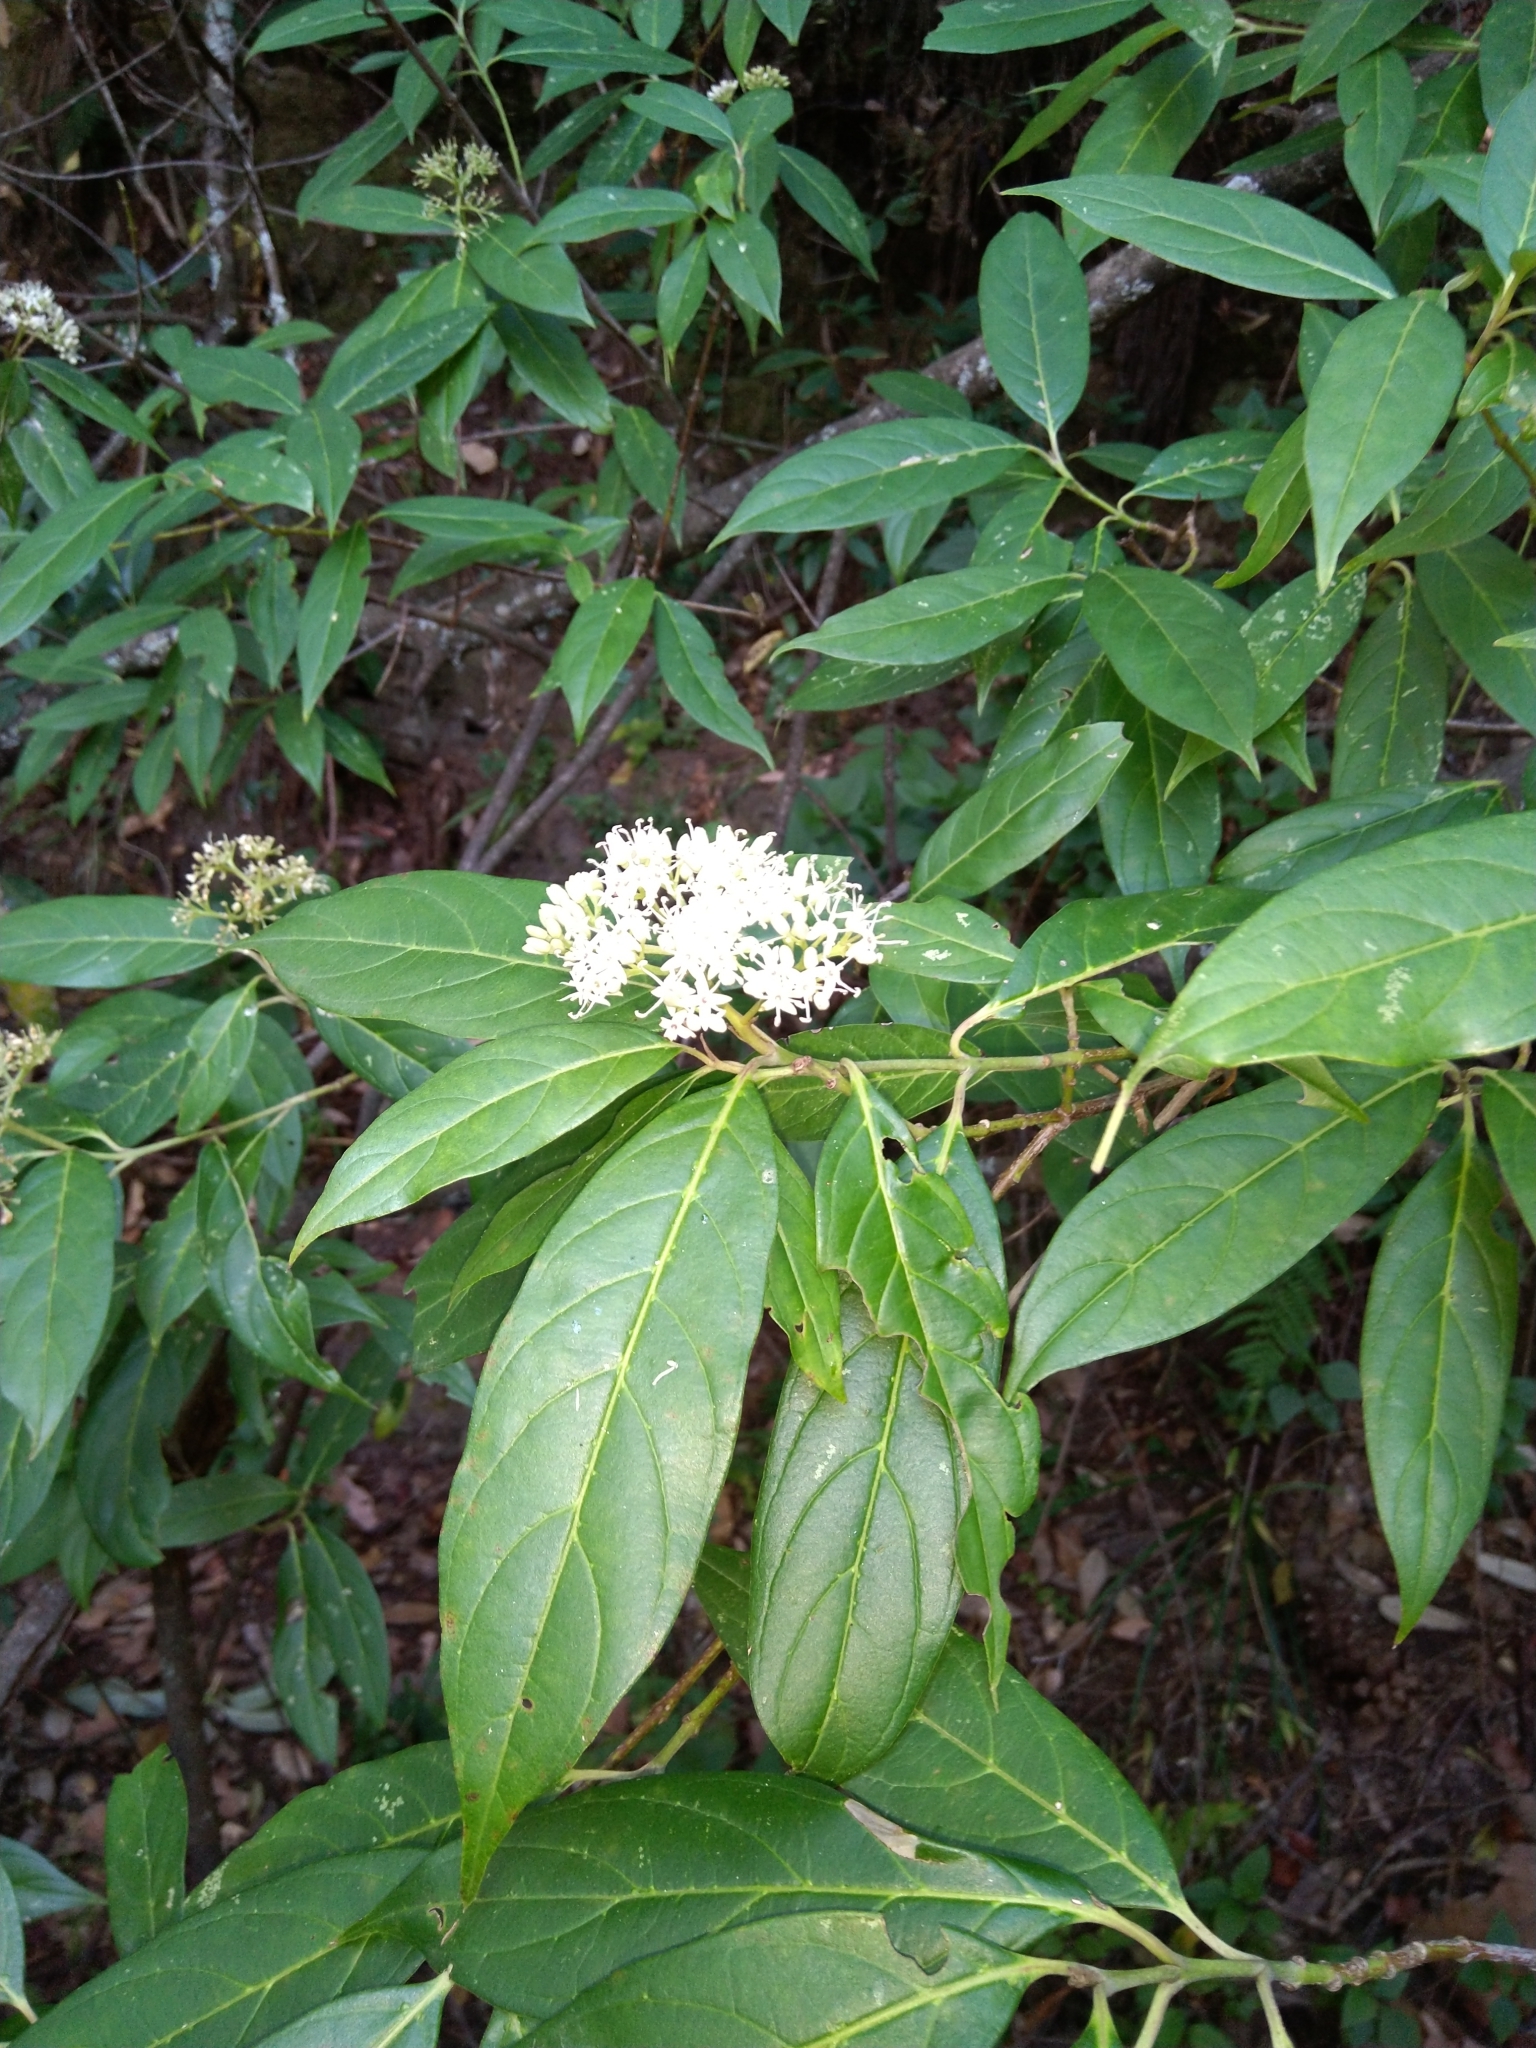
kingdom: Plantae
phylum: Tracheophyta
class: Magnoliopsida
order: Cornales
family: Cornaceae
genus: Cornus
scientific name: Cornus oblonga
